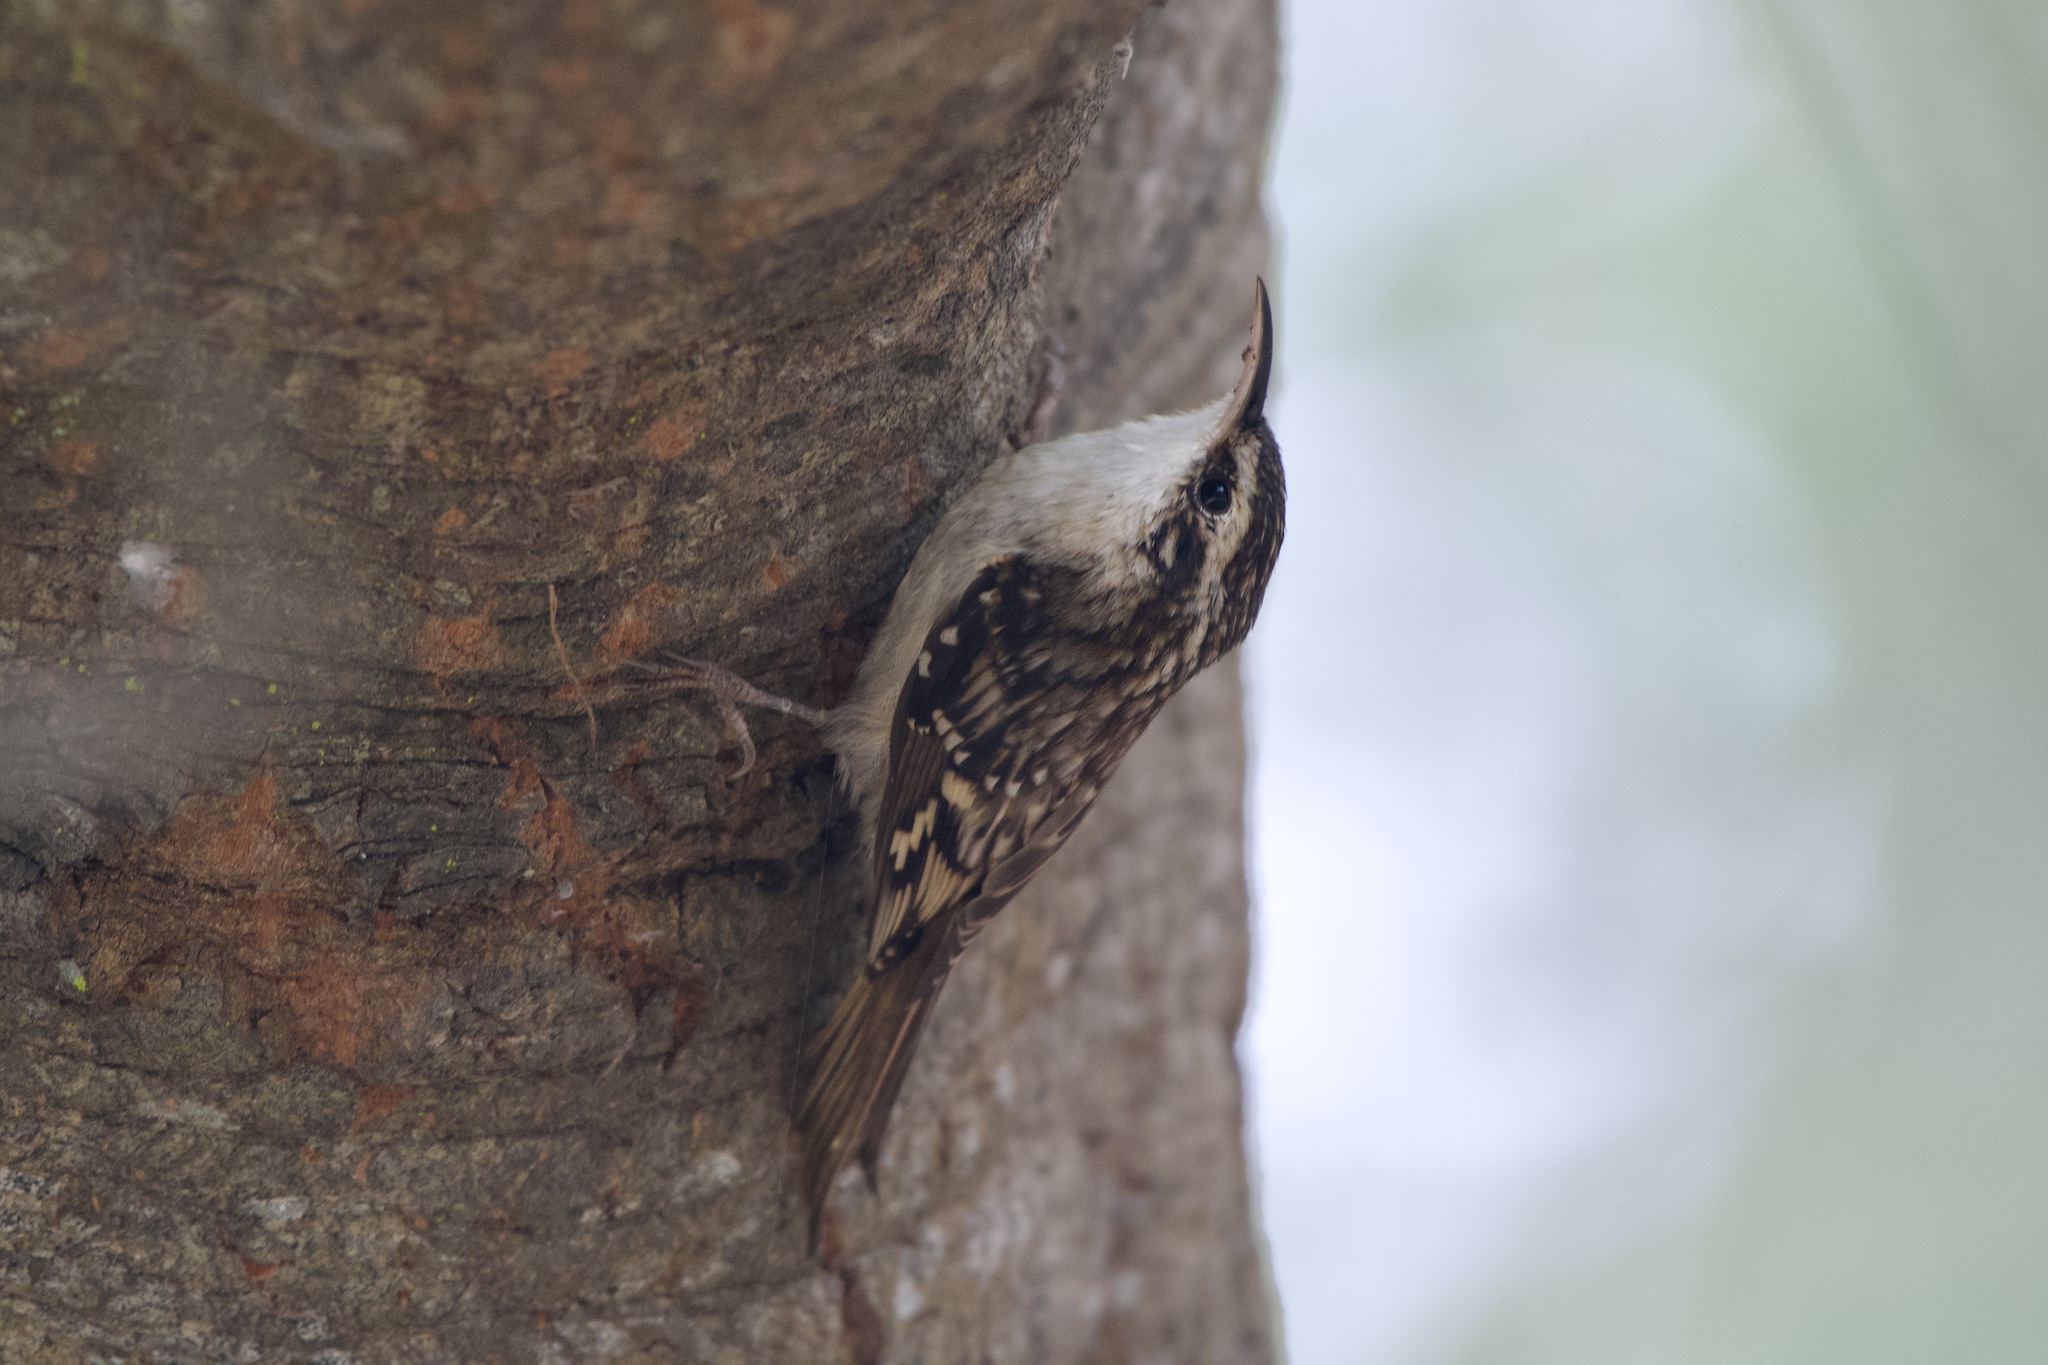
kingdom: Animalia
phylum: Chordata
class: Aves
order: Passeriformes
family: Certhiidae
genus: Certhia
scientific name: Certhia americana
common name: Brown creeper
